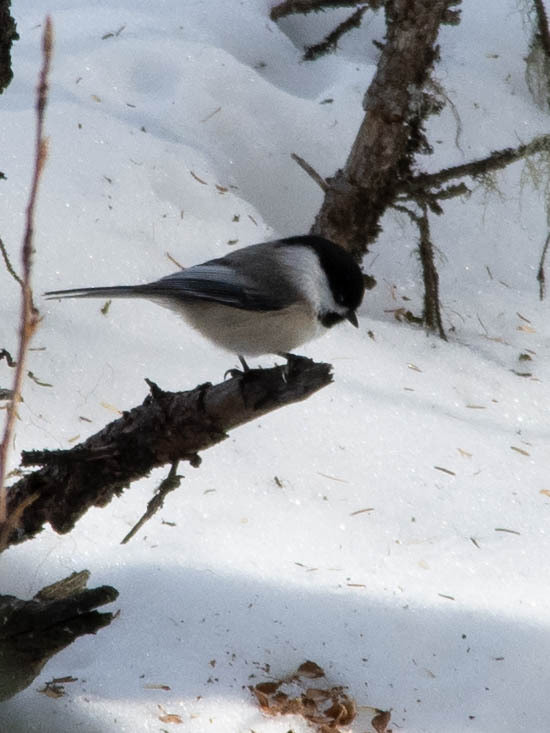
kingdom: Animalia
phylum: Chordata
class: Aves
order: Passeriformes
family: Paridae
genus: Poecile
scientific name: Poecile atricapillus
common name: Black-capped chickadee
